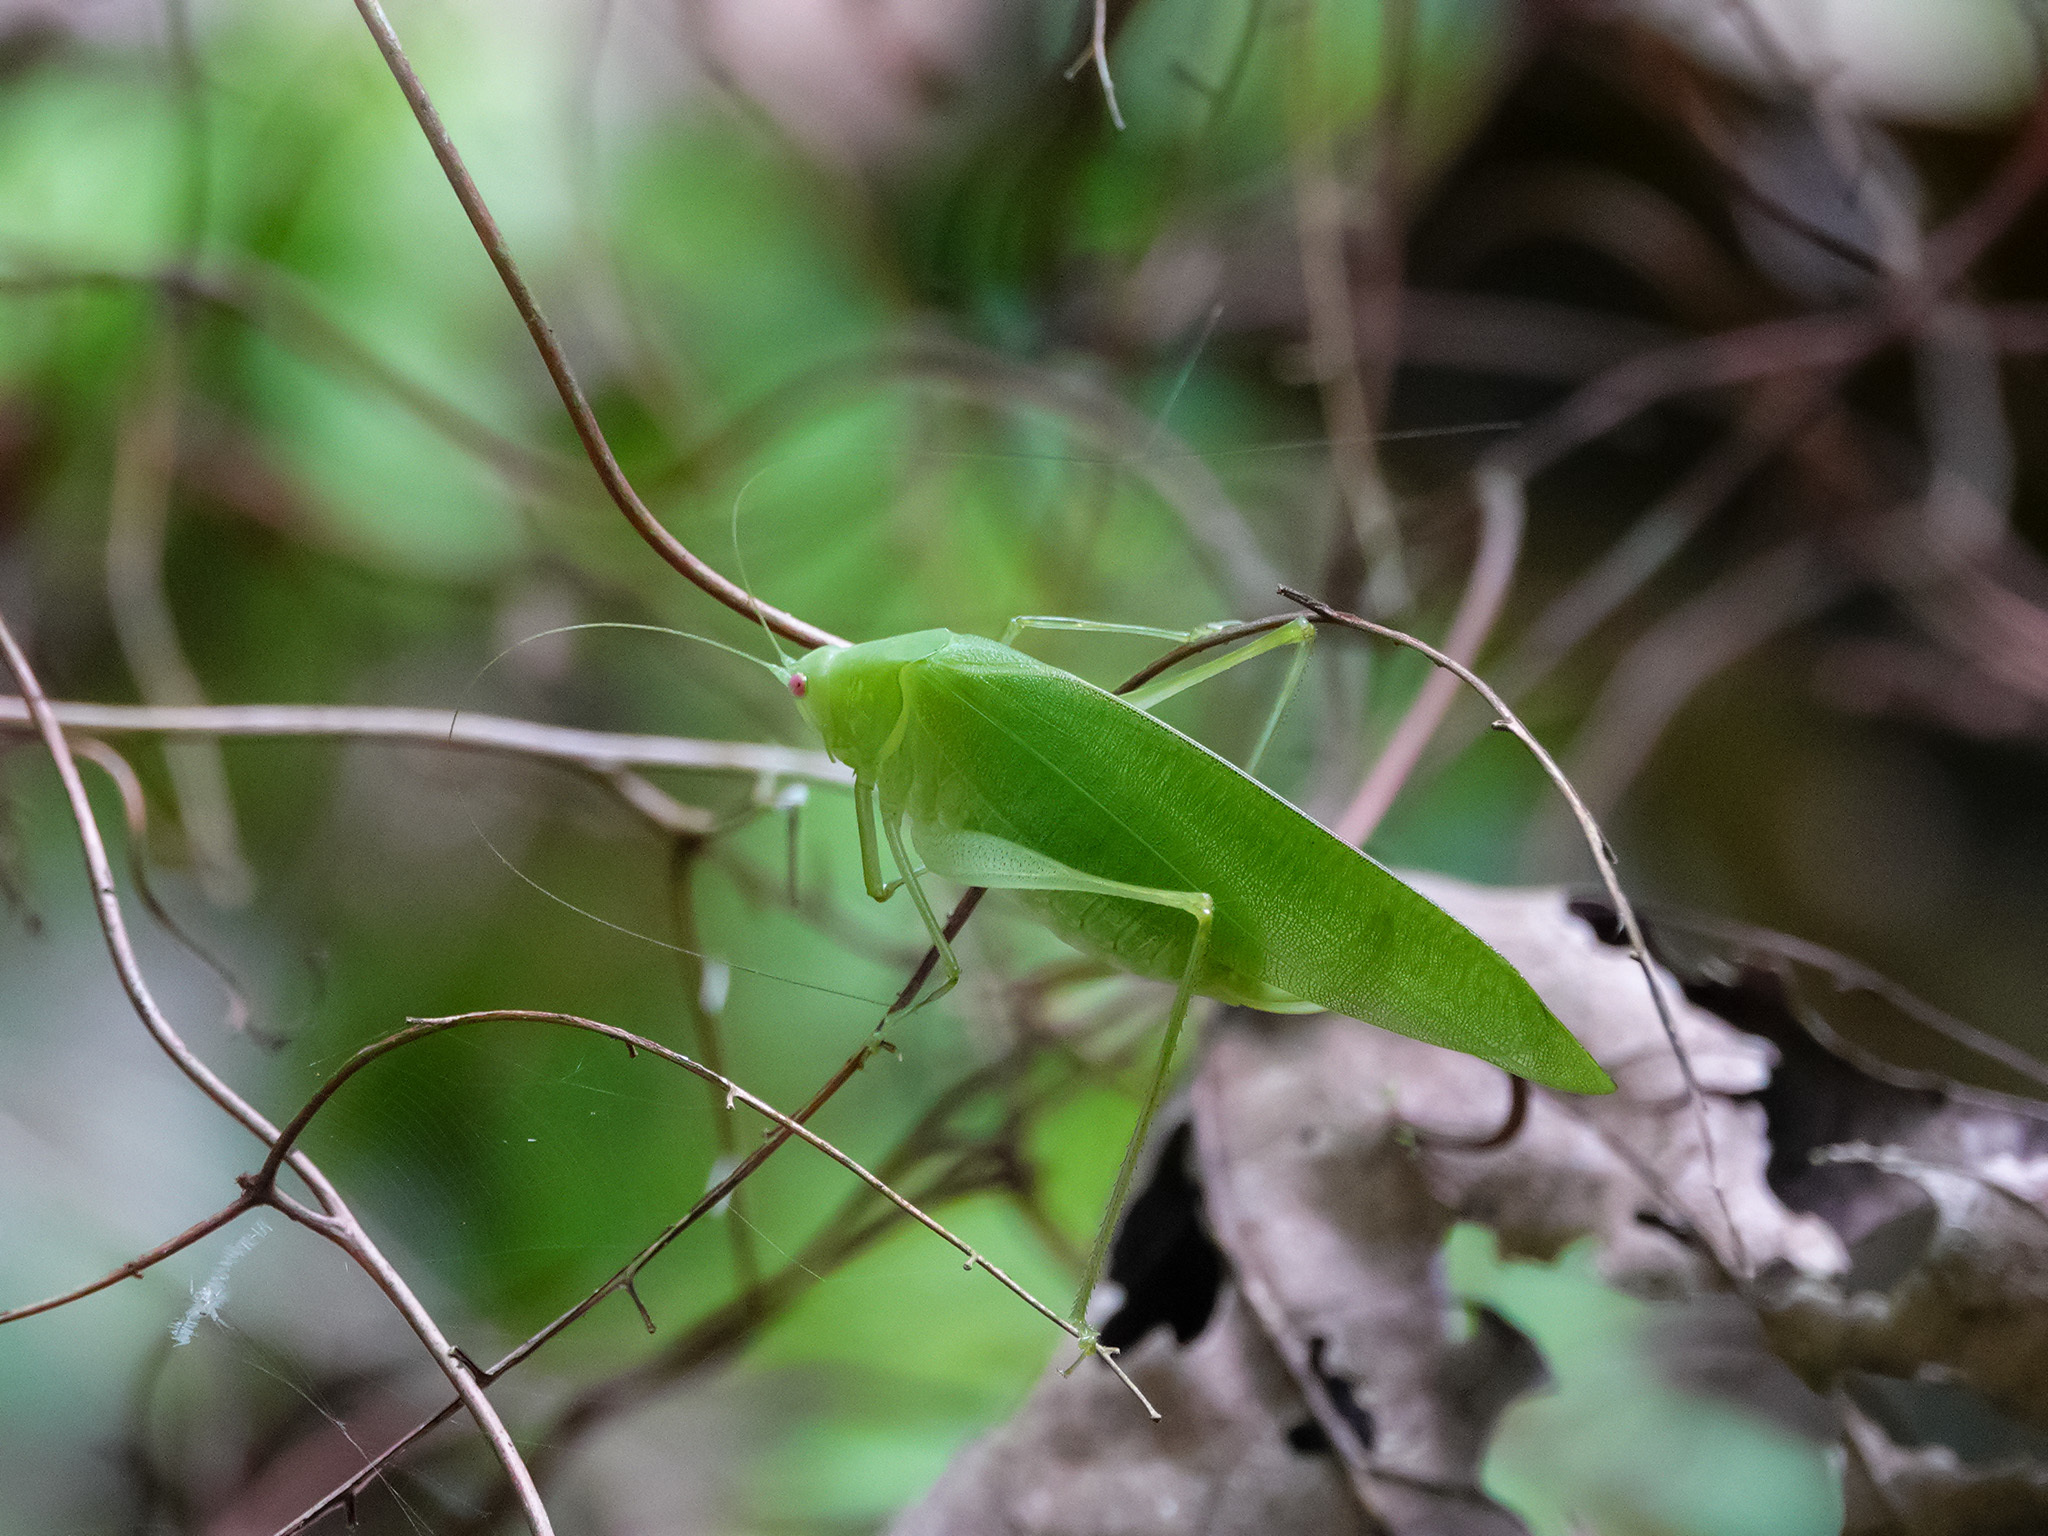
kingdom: Animalia
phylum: Arthropoda
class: Insecta
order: Orthoptera
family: Tettigoniidae
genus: Phaulula
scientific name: Phaulula malayica
